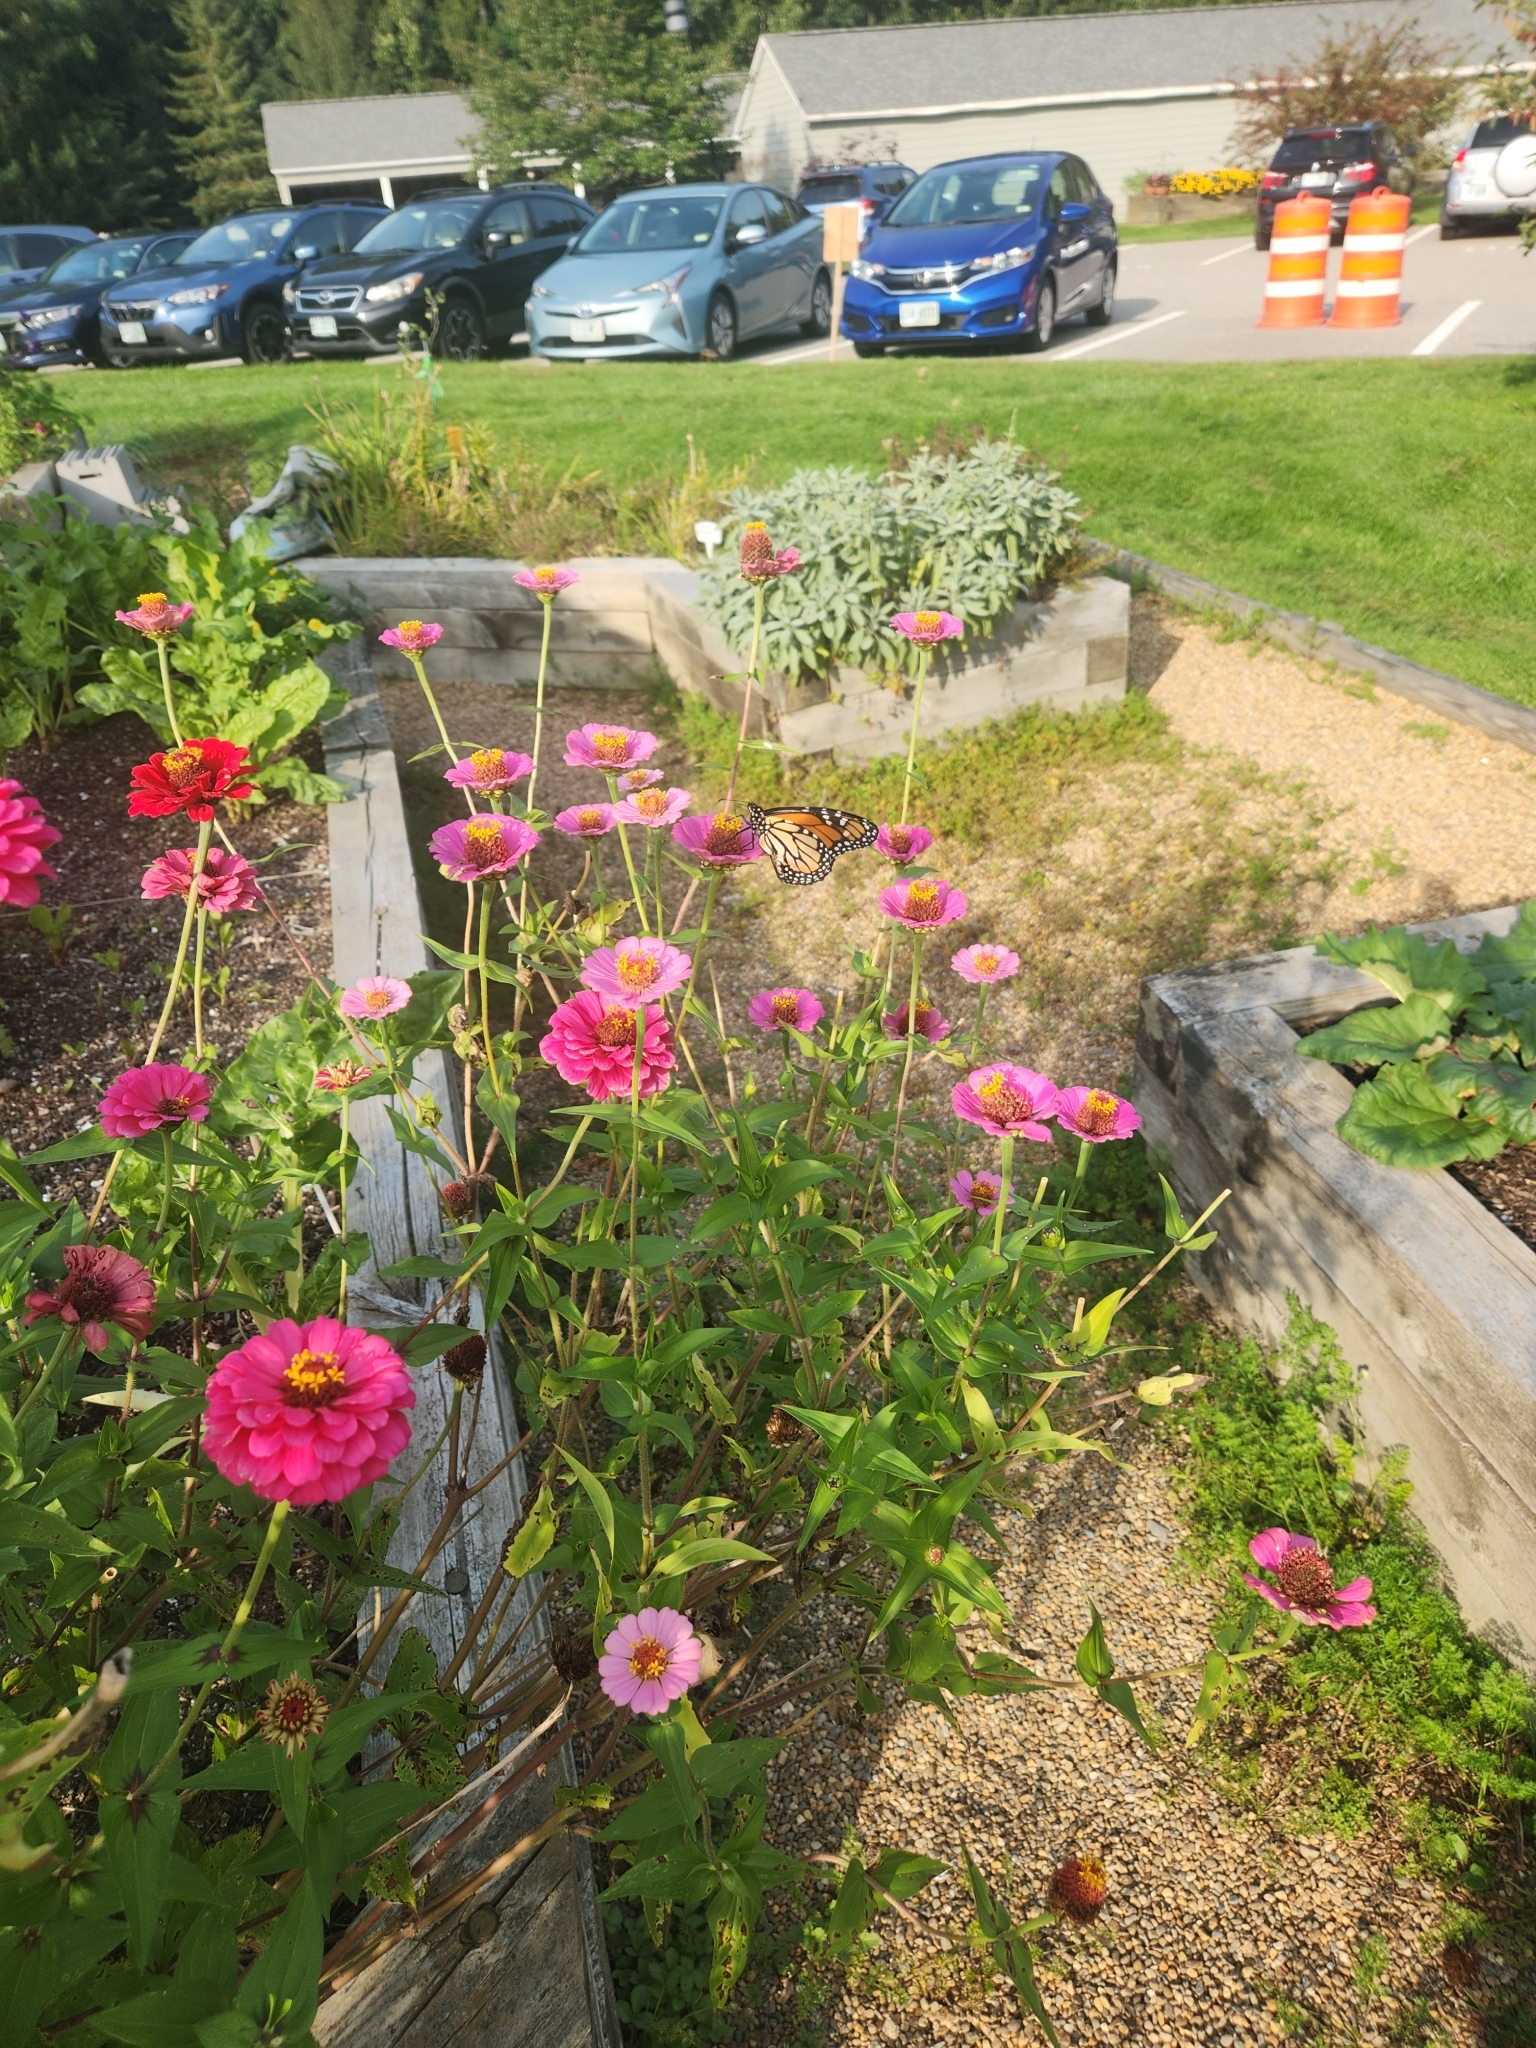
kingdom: Animalia
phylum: Arthropoda
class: Insecta
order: Lepidoptera
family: Nymphalidae
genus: Danaus
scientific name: Danaus plexippus
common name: Monarch
